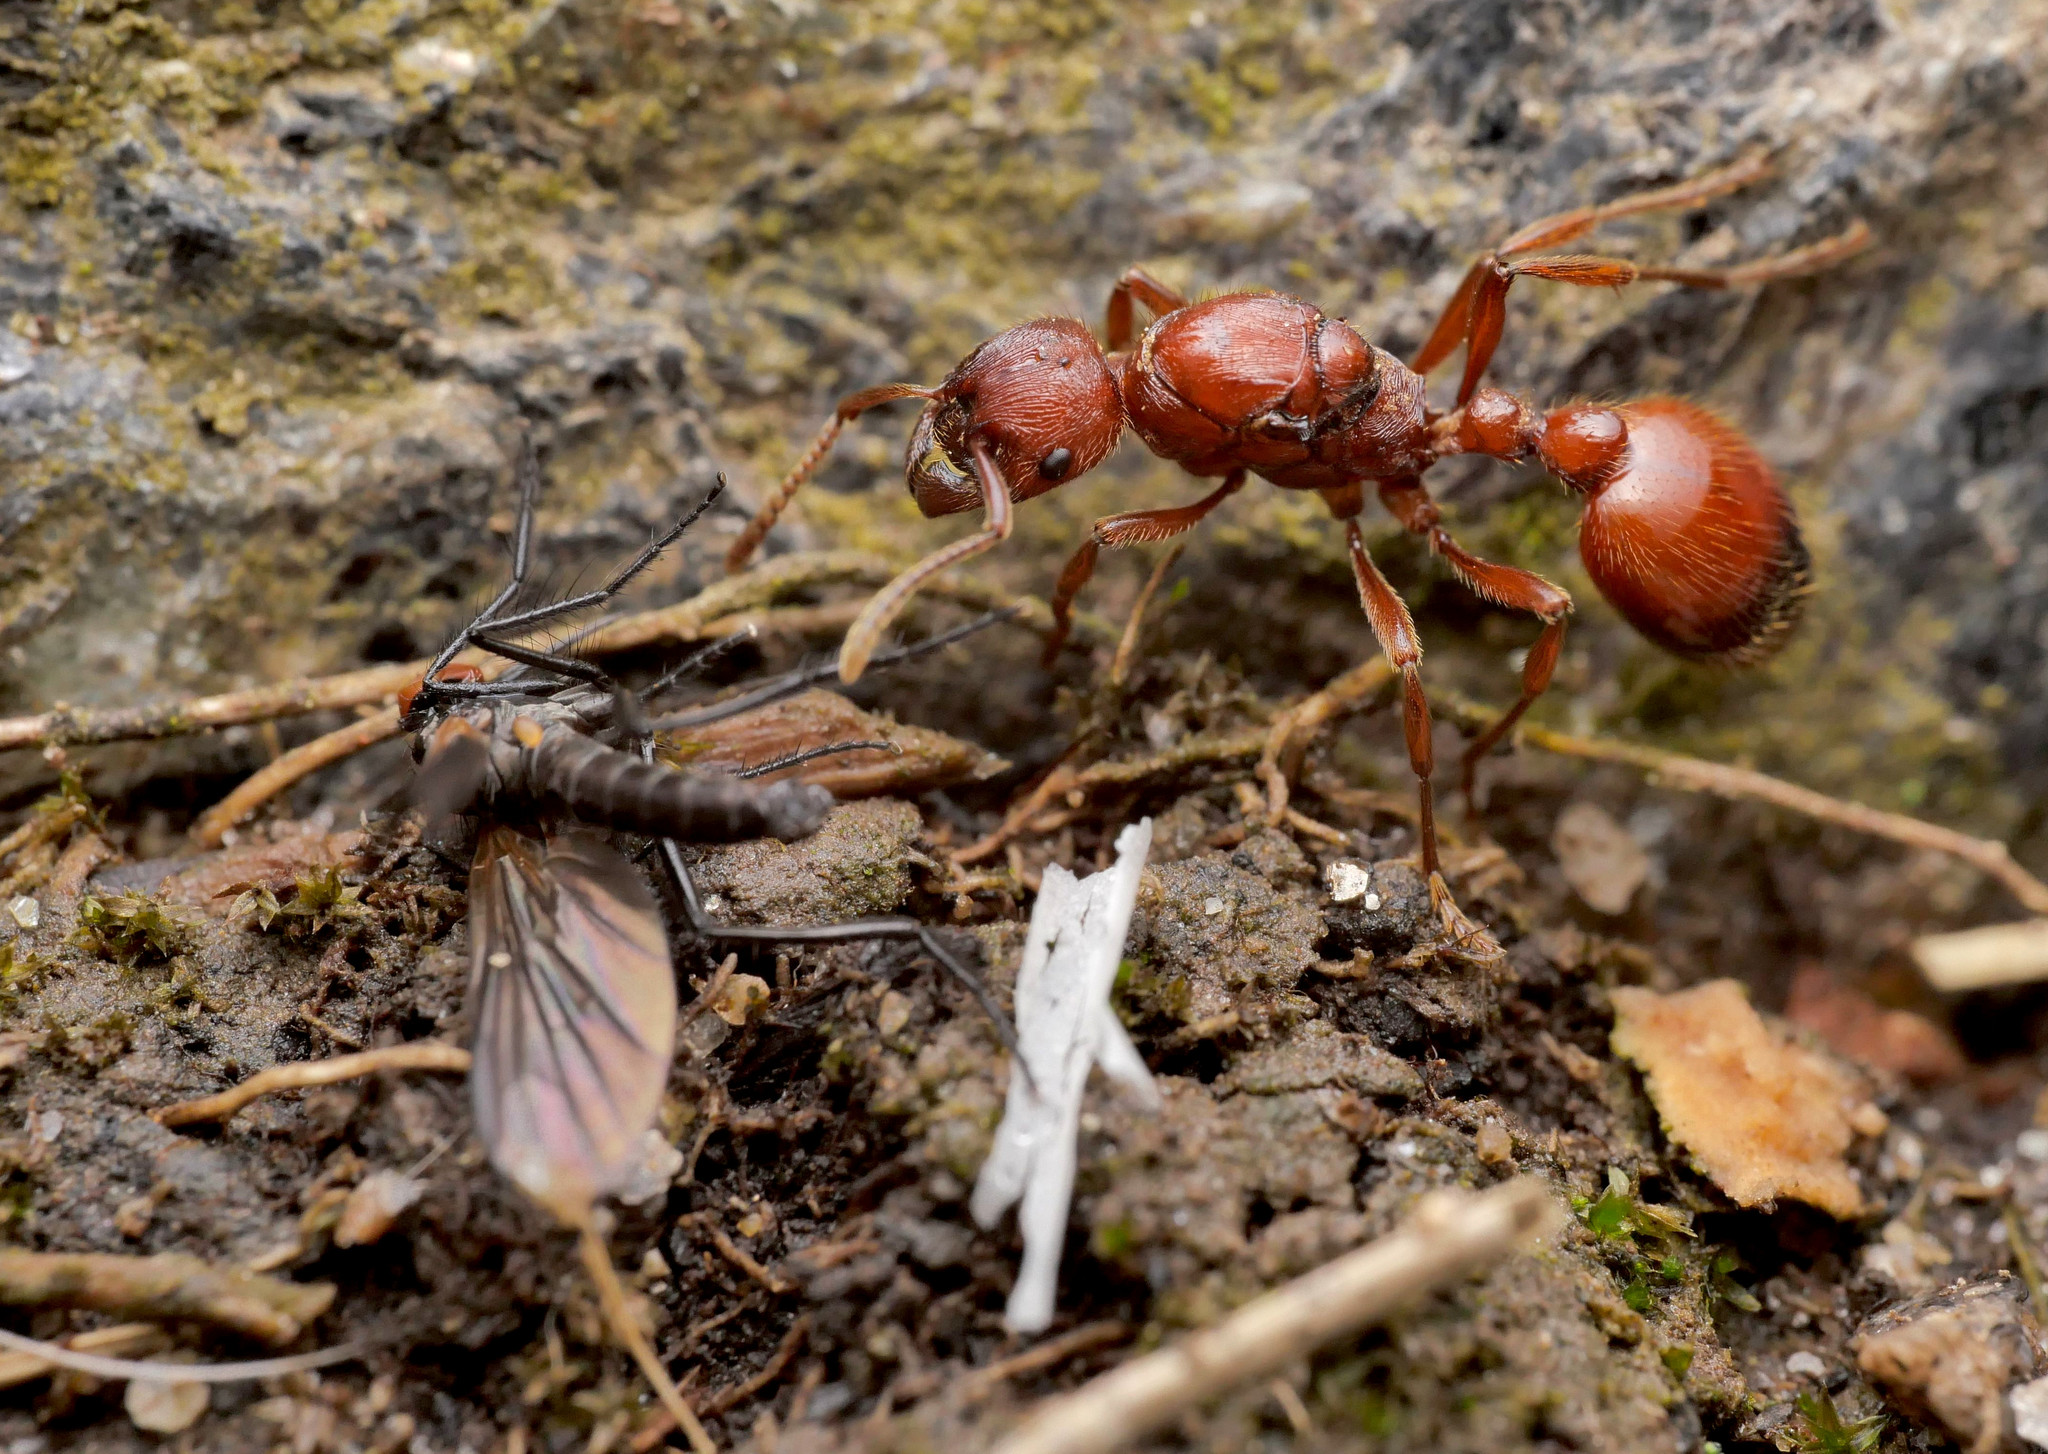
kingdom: Animalia
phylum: Arthropoda
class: Insecta
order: Hymenoptera
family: Formicidae
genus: Manica
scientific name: Manica rubida
